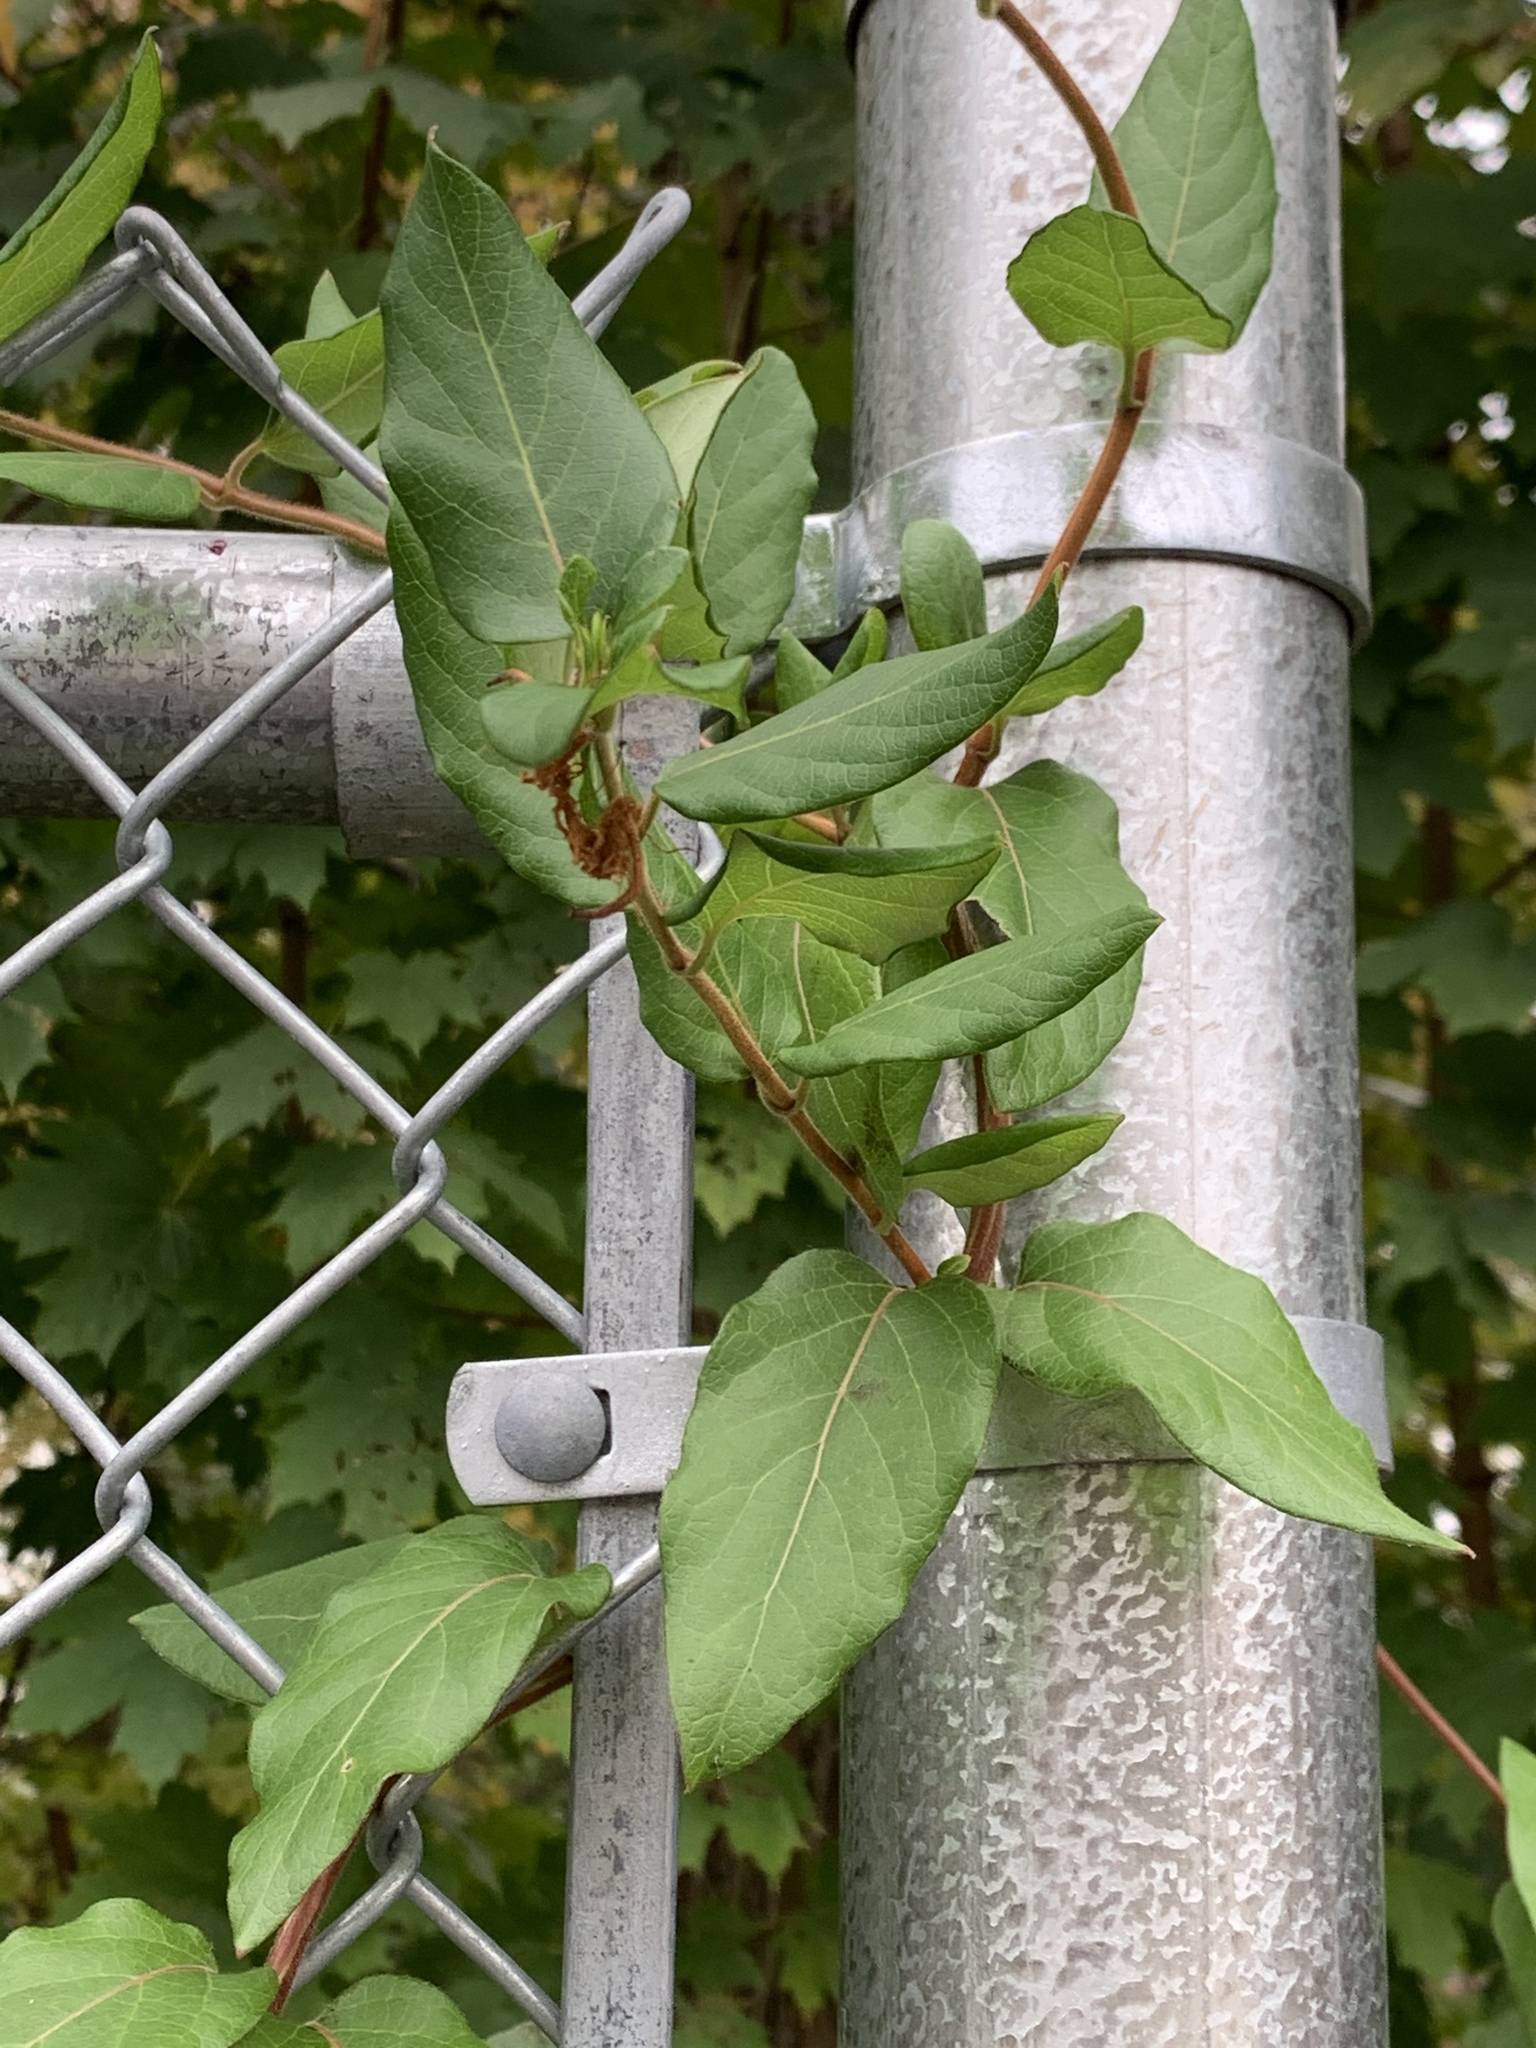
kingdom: Plantae
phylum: Tracheophyta
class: Magnoliopsida
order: Dipsacales
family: Caprifoliaceae
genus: Lonicera
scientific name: Lonicera japonica
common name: Japanese honeysuckle
